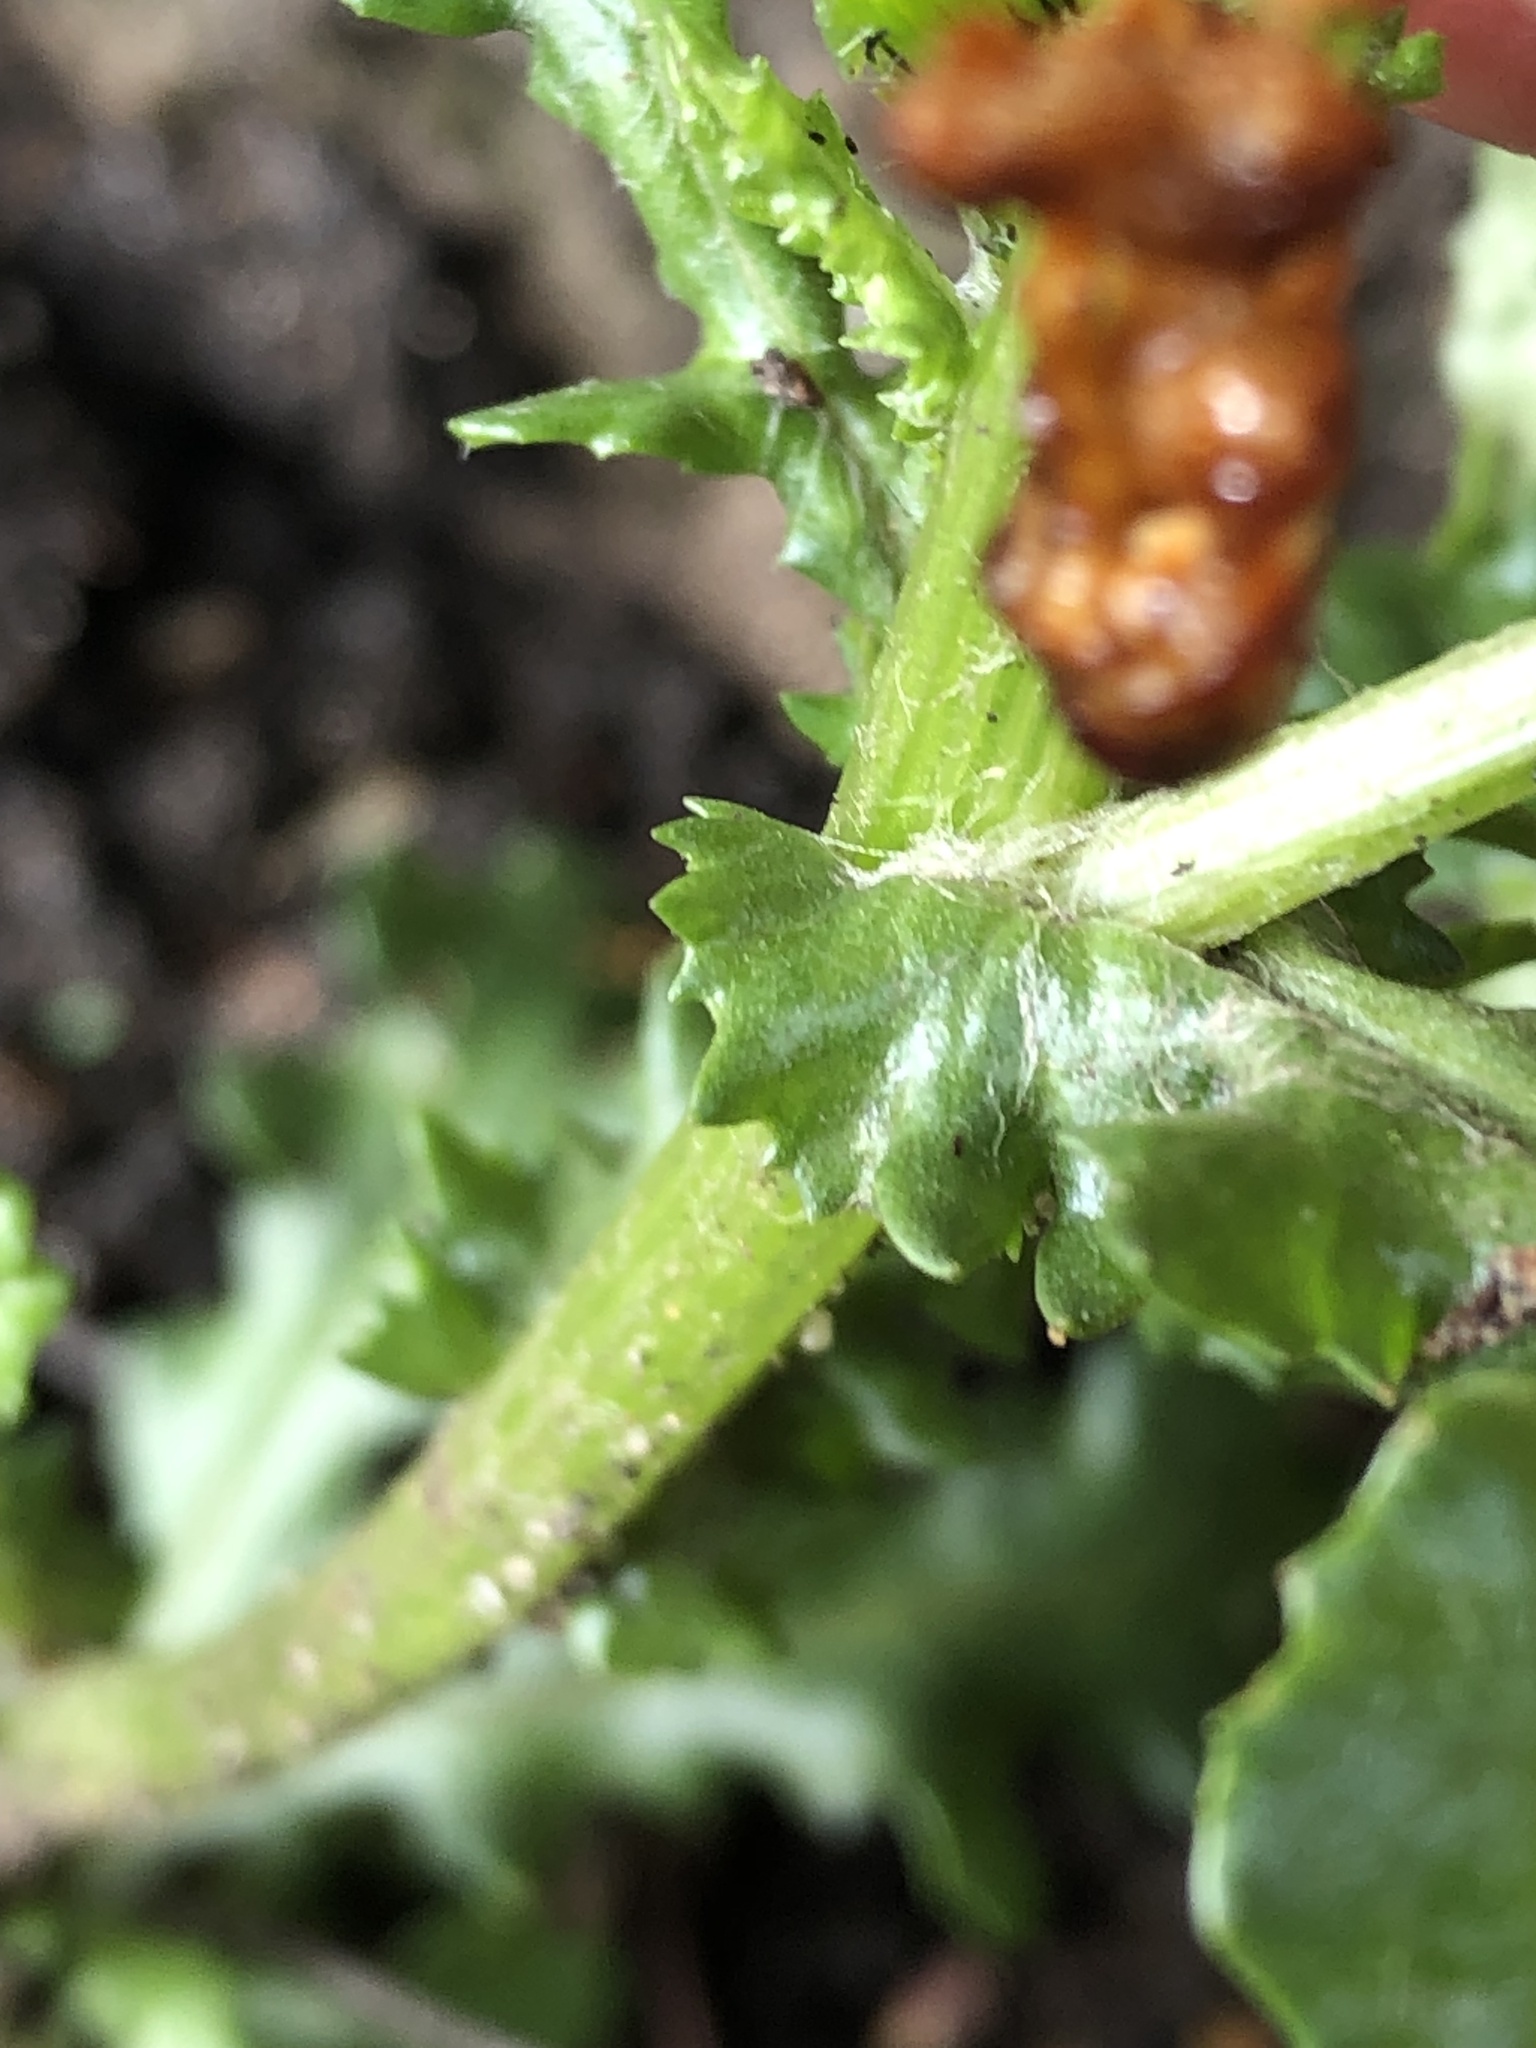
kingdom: Plantae
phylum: Tracheophyta
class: Magnoliopsida
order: Asterales
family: Asteraceae
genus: Senecio
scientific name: Senecio vulgaris
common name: Old-man-in-the-spring
